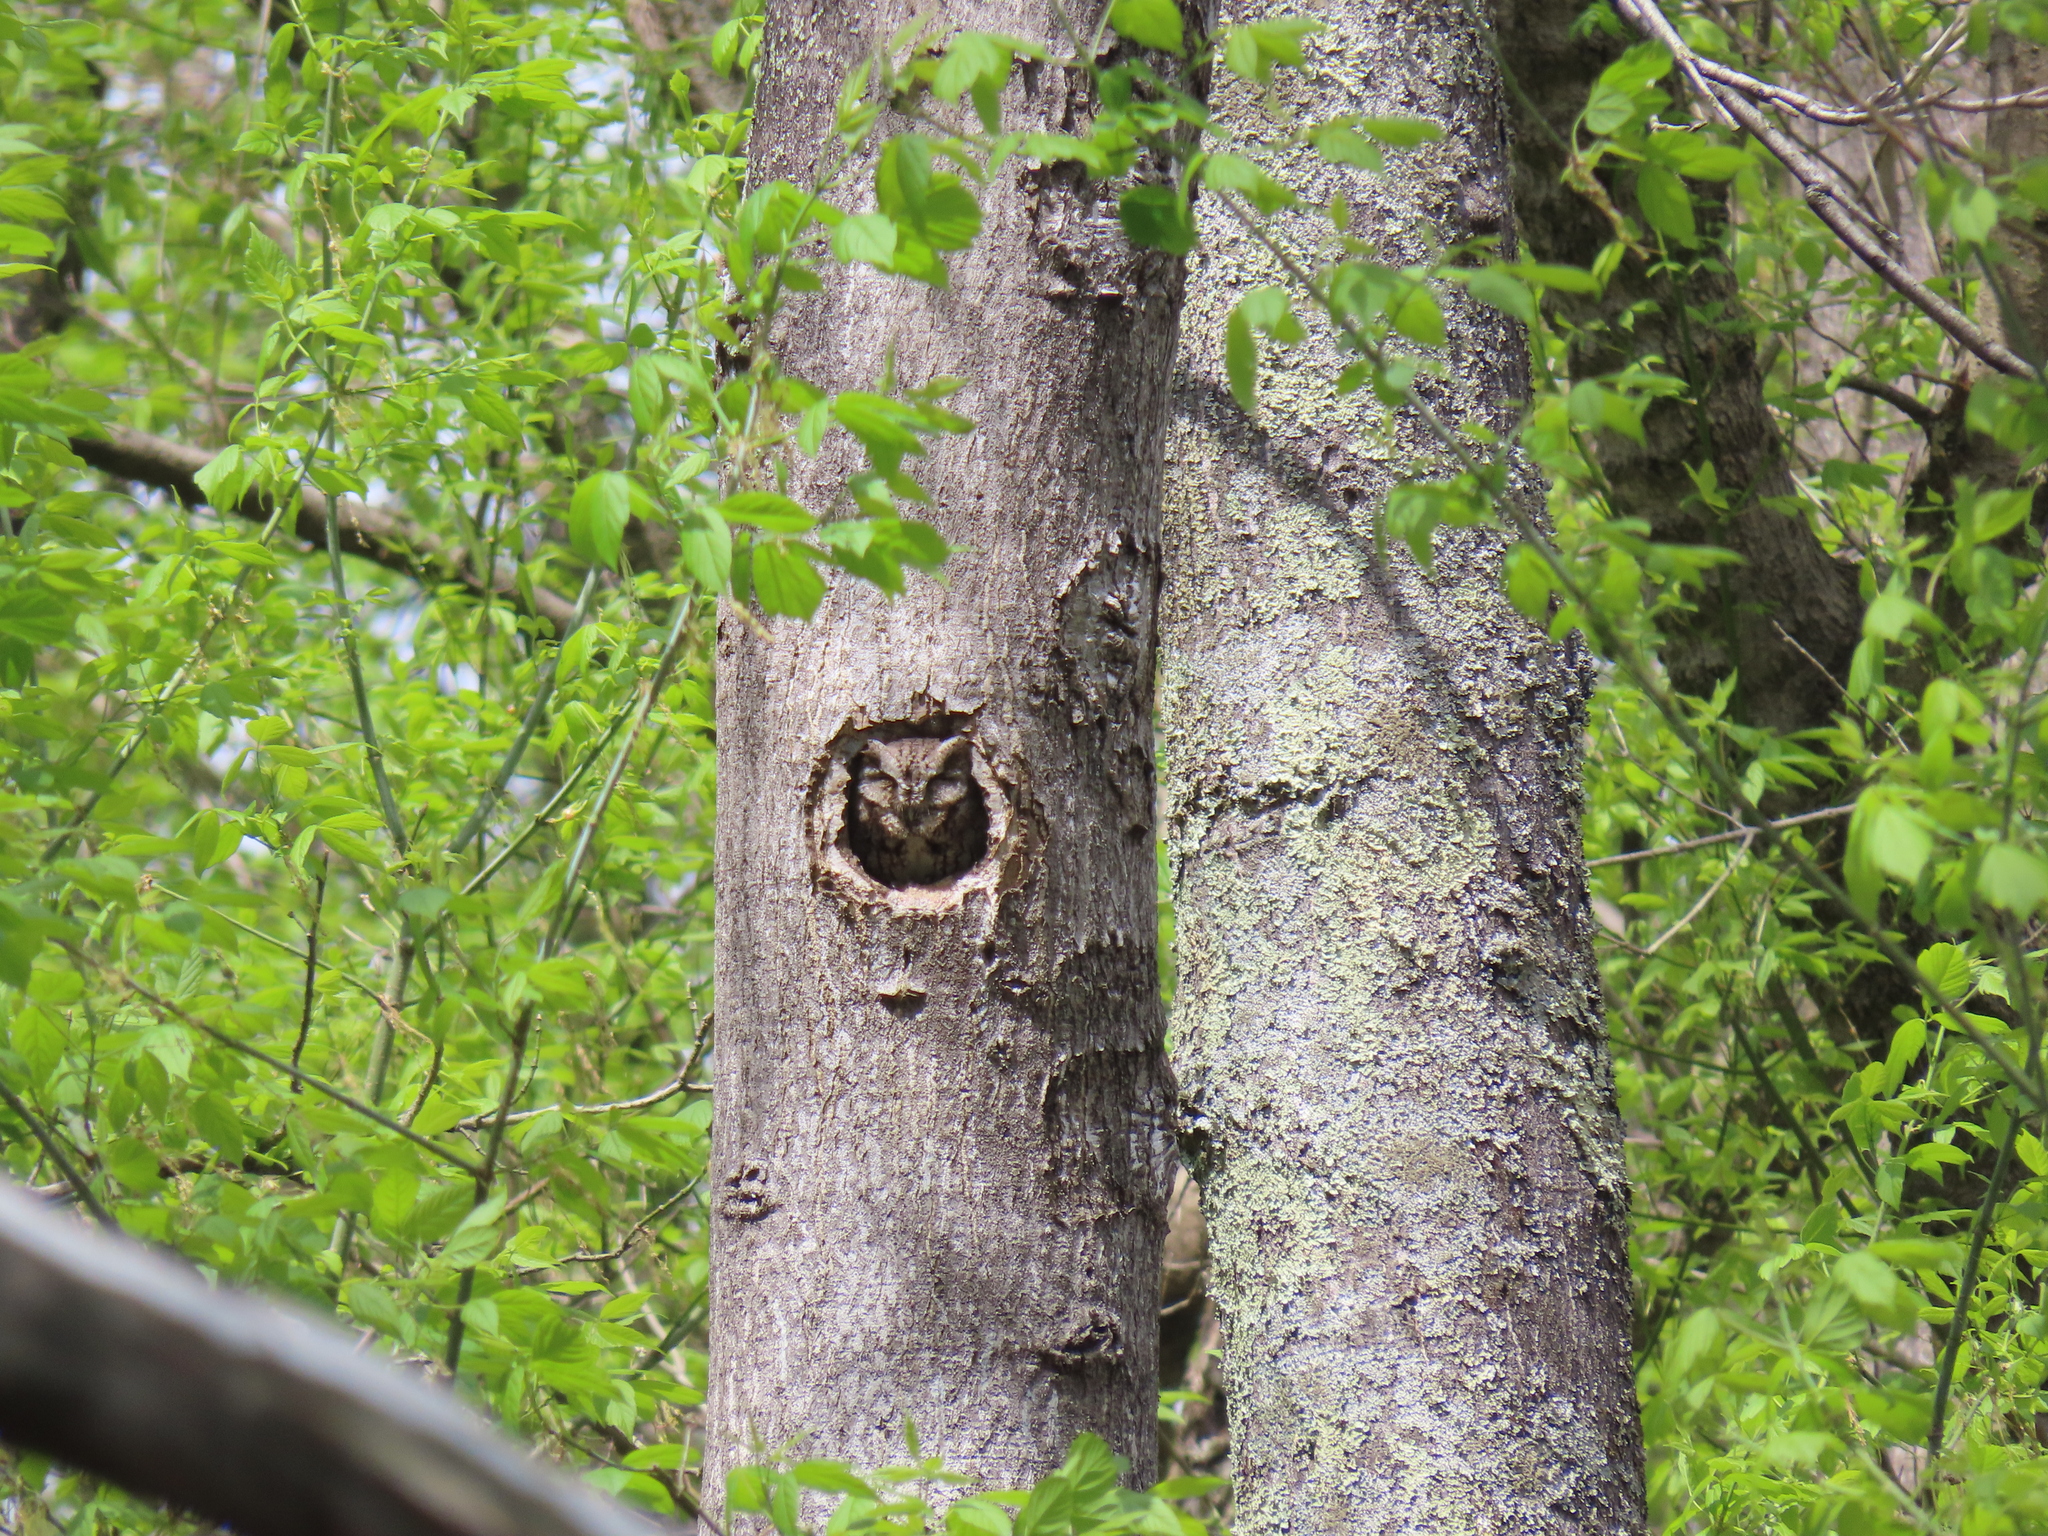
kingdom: Animalia
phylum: Chordata
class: Aves
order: Strigiformes
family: Strigidae
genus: Megascops
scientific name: Megascops asio
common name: Eastern screech-owl
